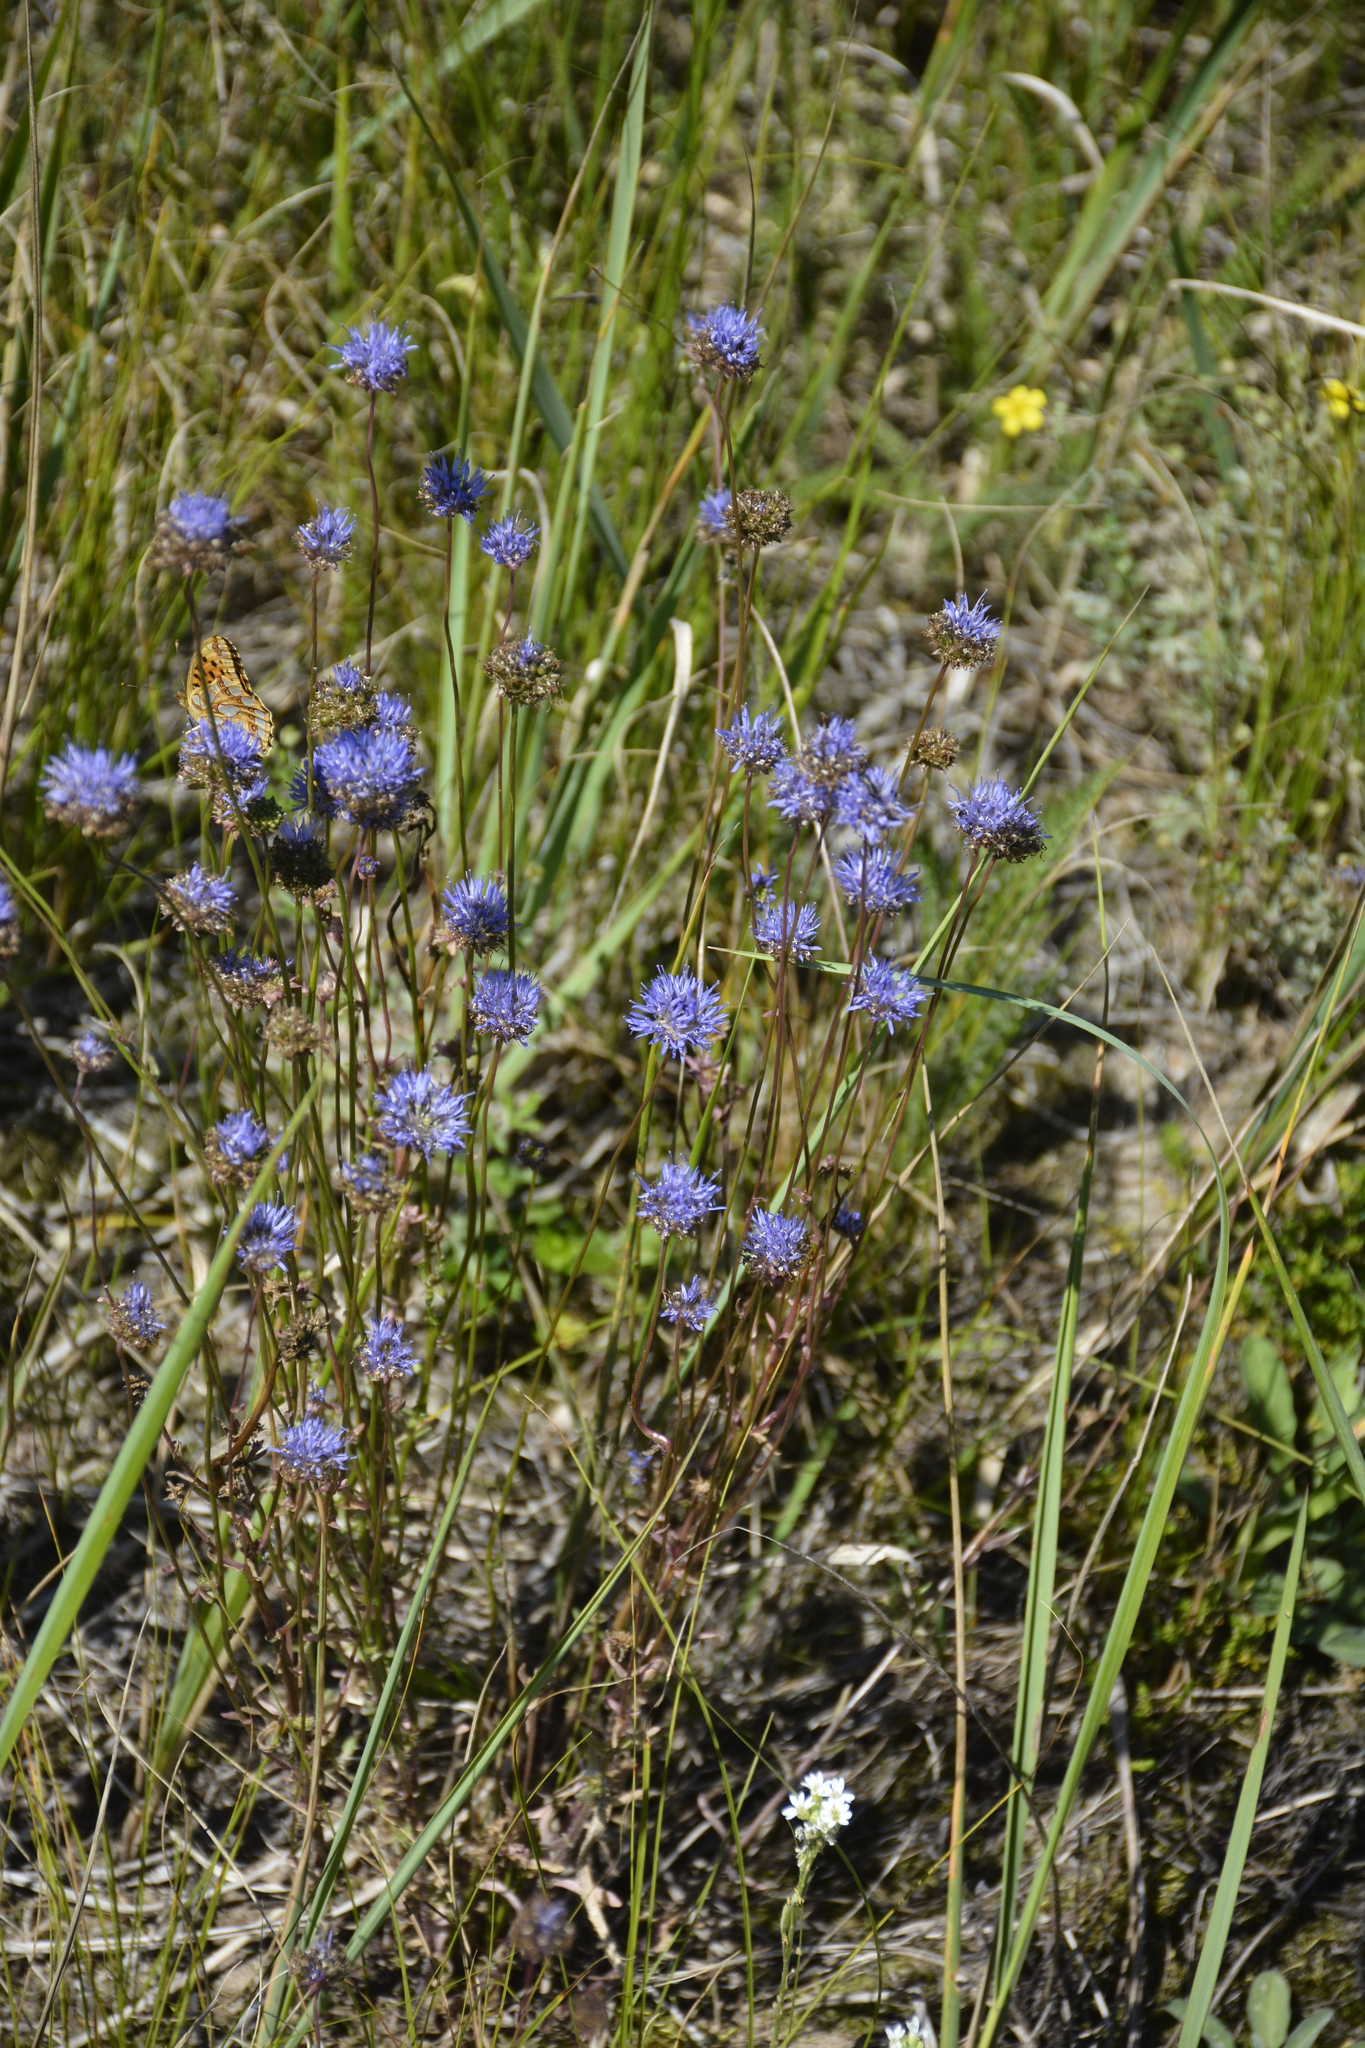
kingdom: Plantae
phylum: Tracheophyta
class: Magnoliopsida
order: Asterales
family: Campanulaceae
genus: Jasione
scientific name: Jasione montana
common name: Sheep's-bit
